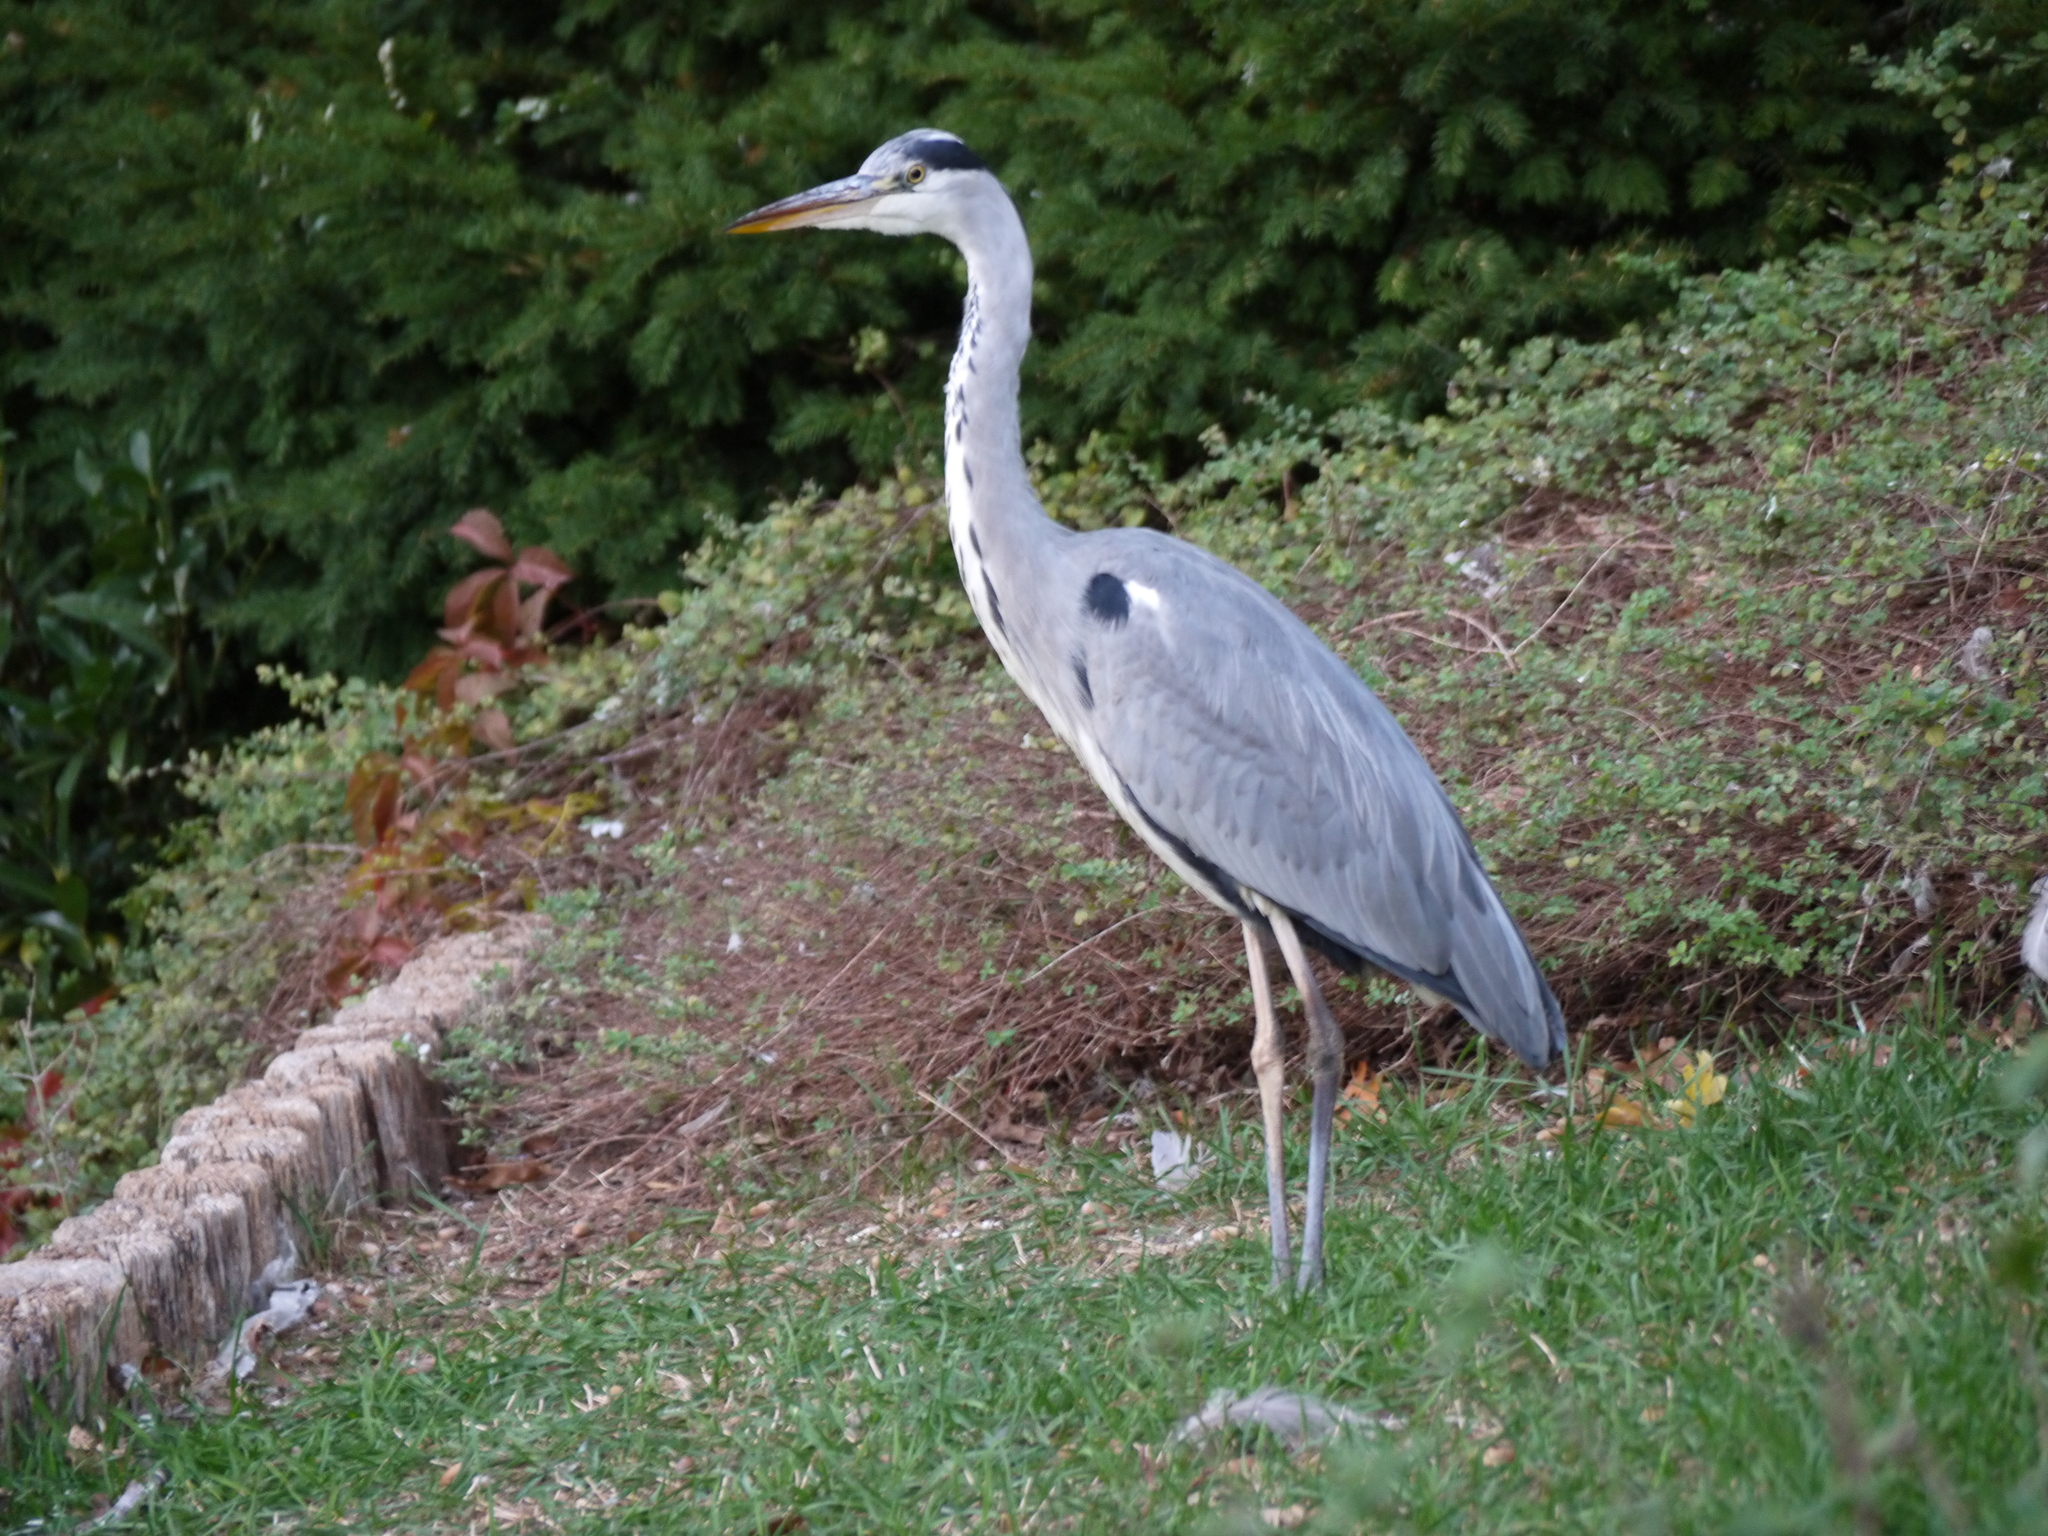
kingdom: Animalia
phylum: Chordata
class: Aves
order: Pelecaniformes
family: Ardeidae
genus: Ardea
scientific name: Ardea cinerea
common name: Grey heron
